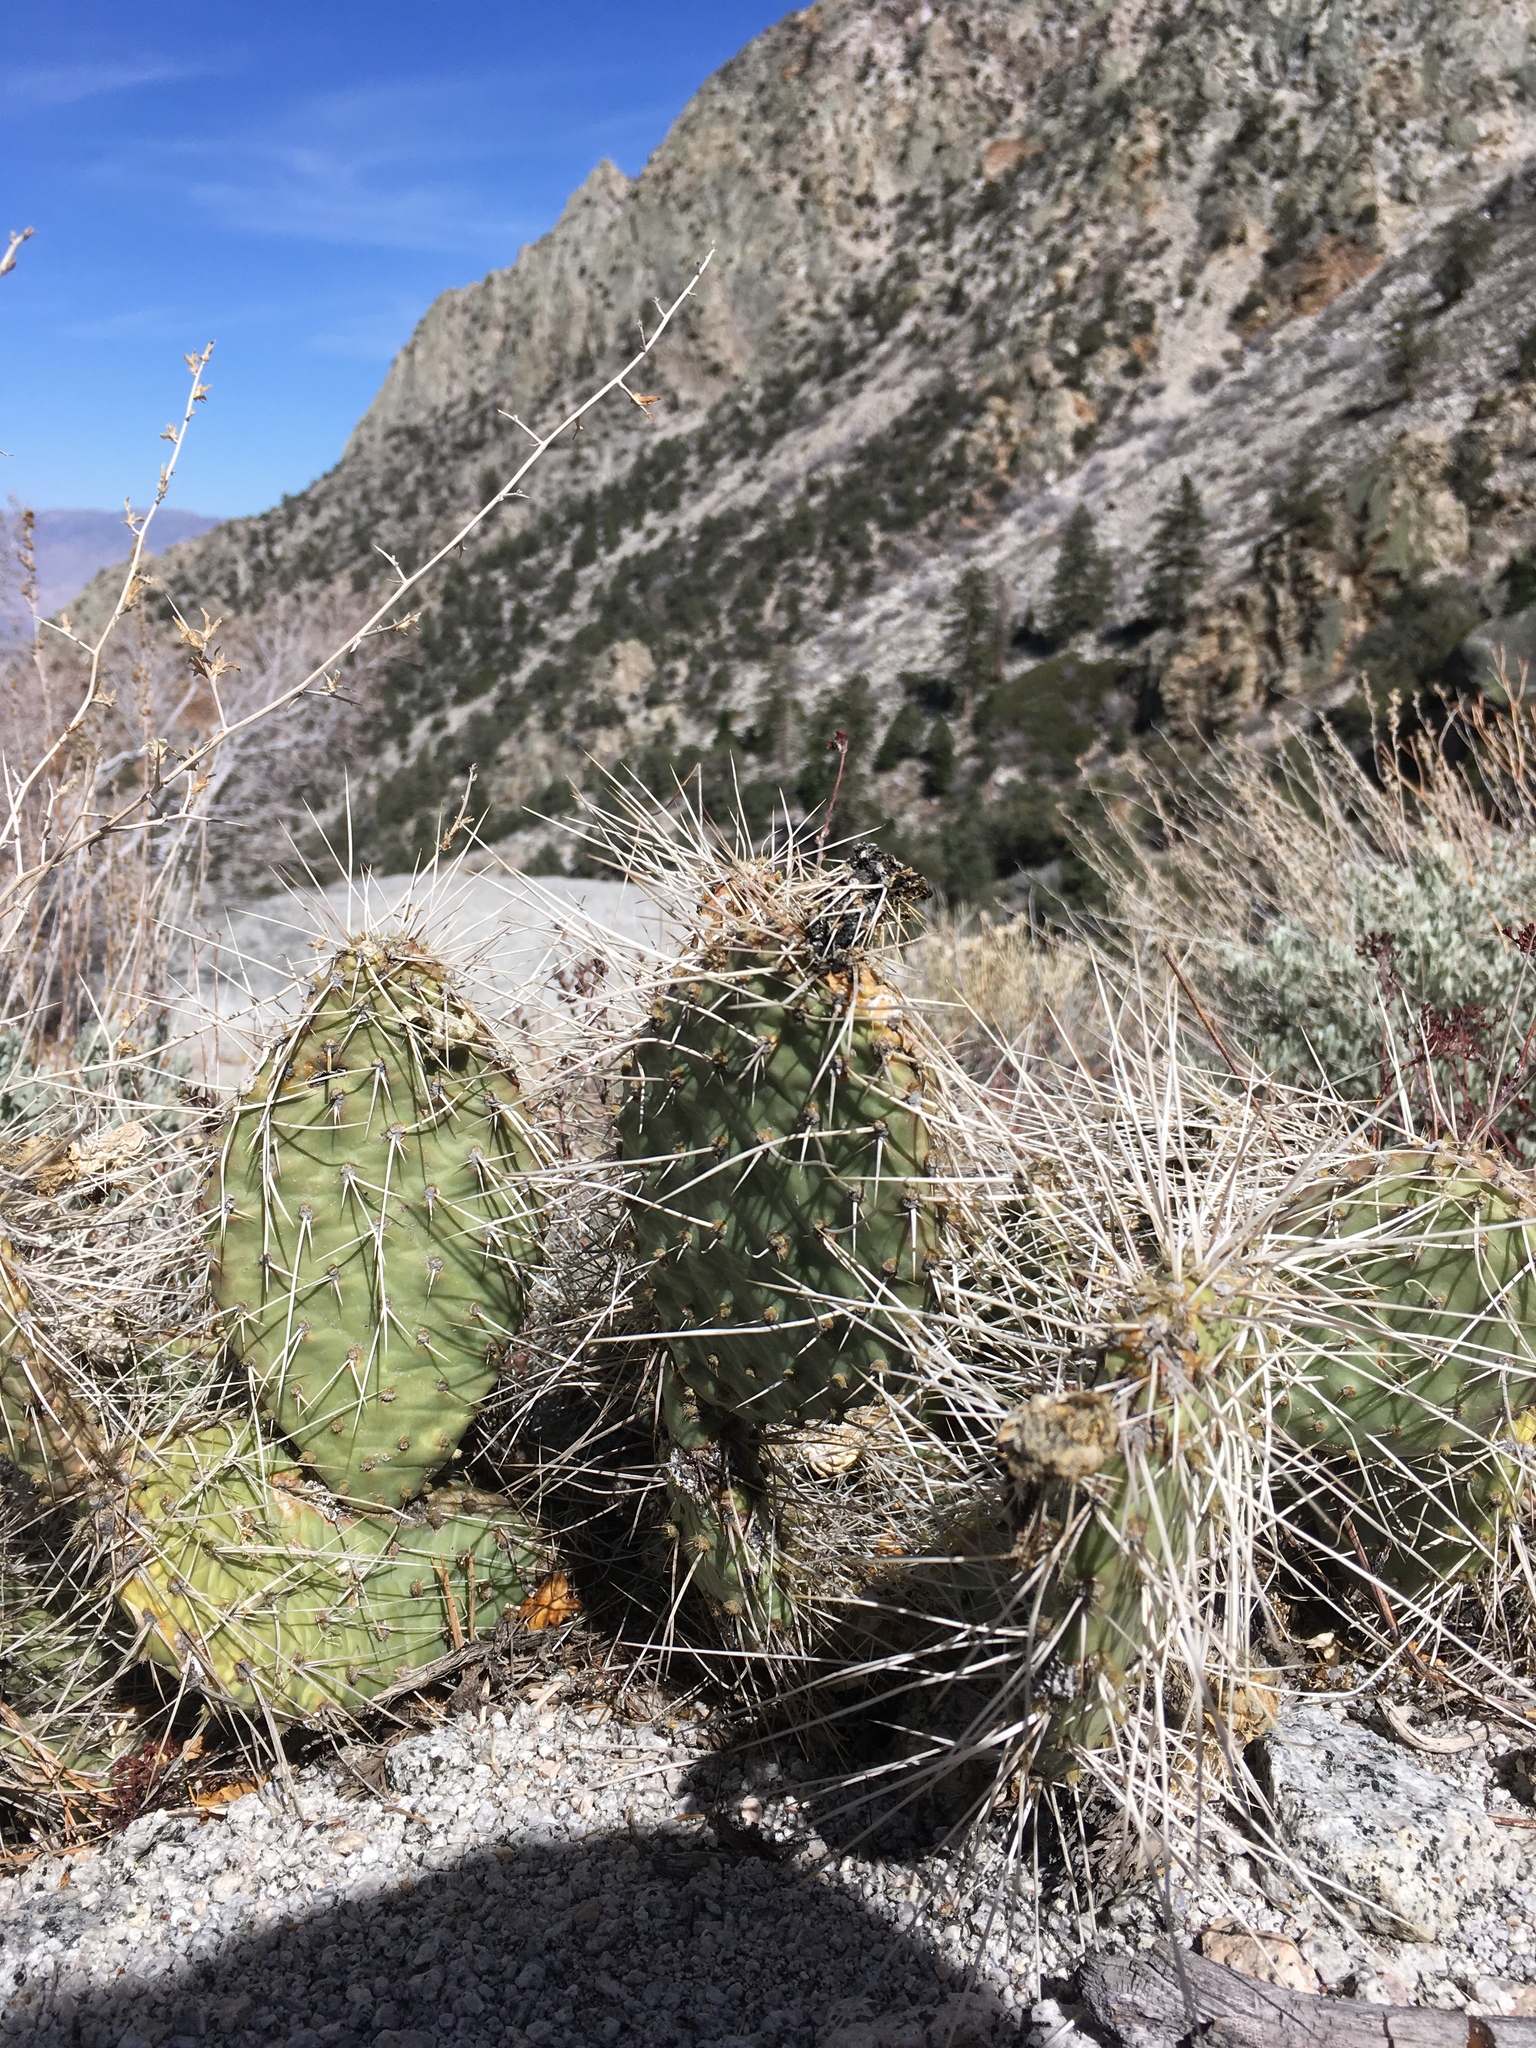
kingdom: Plantae
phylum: Tracheophyta
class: Magnoliopsida
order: Caryophyllales
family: Cactaceae
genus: Opuntia
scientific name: Opuntia polyacantha
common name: Plains prickly-pear
